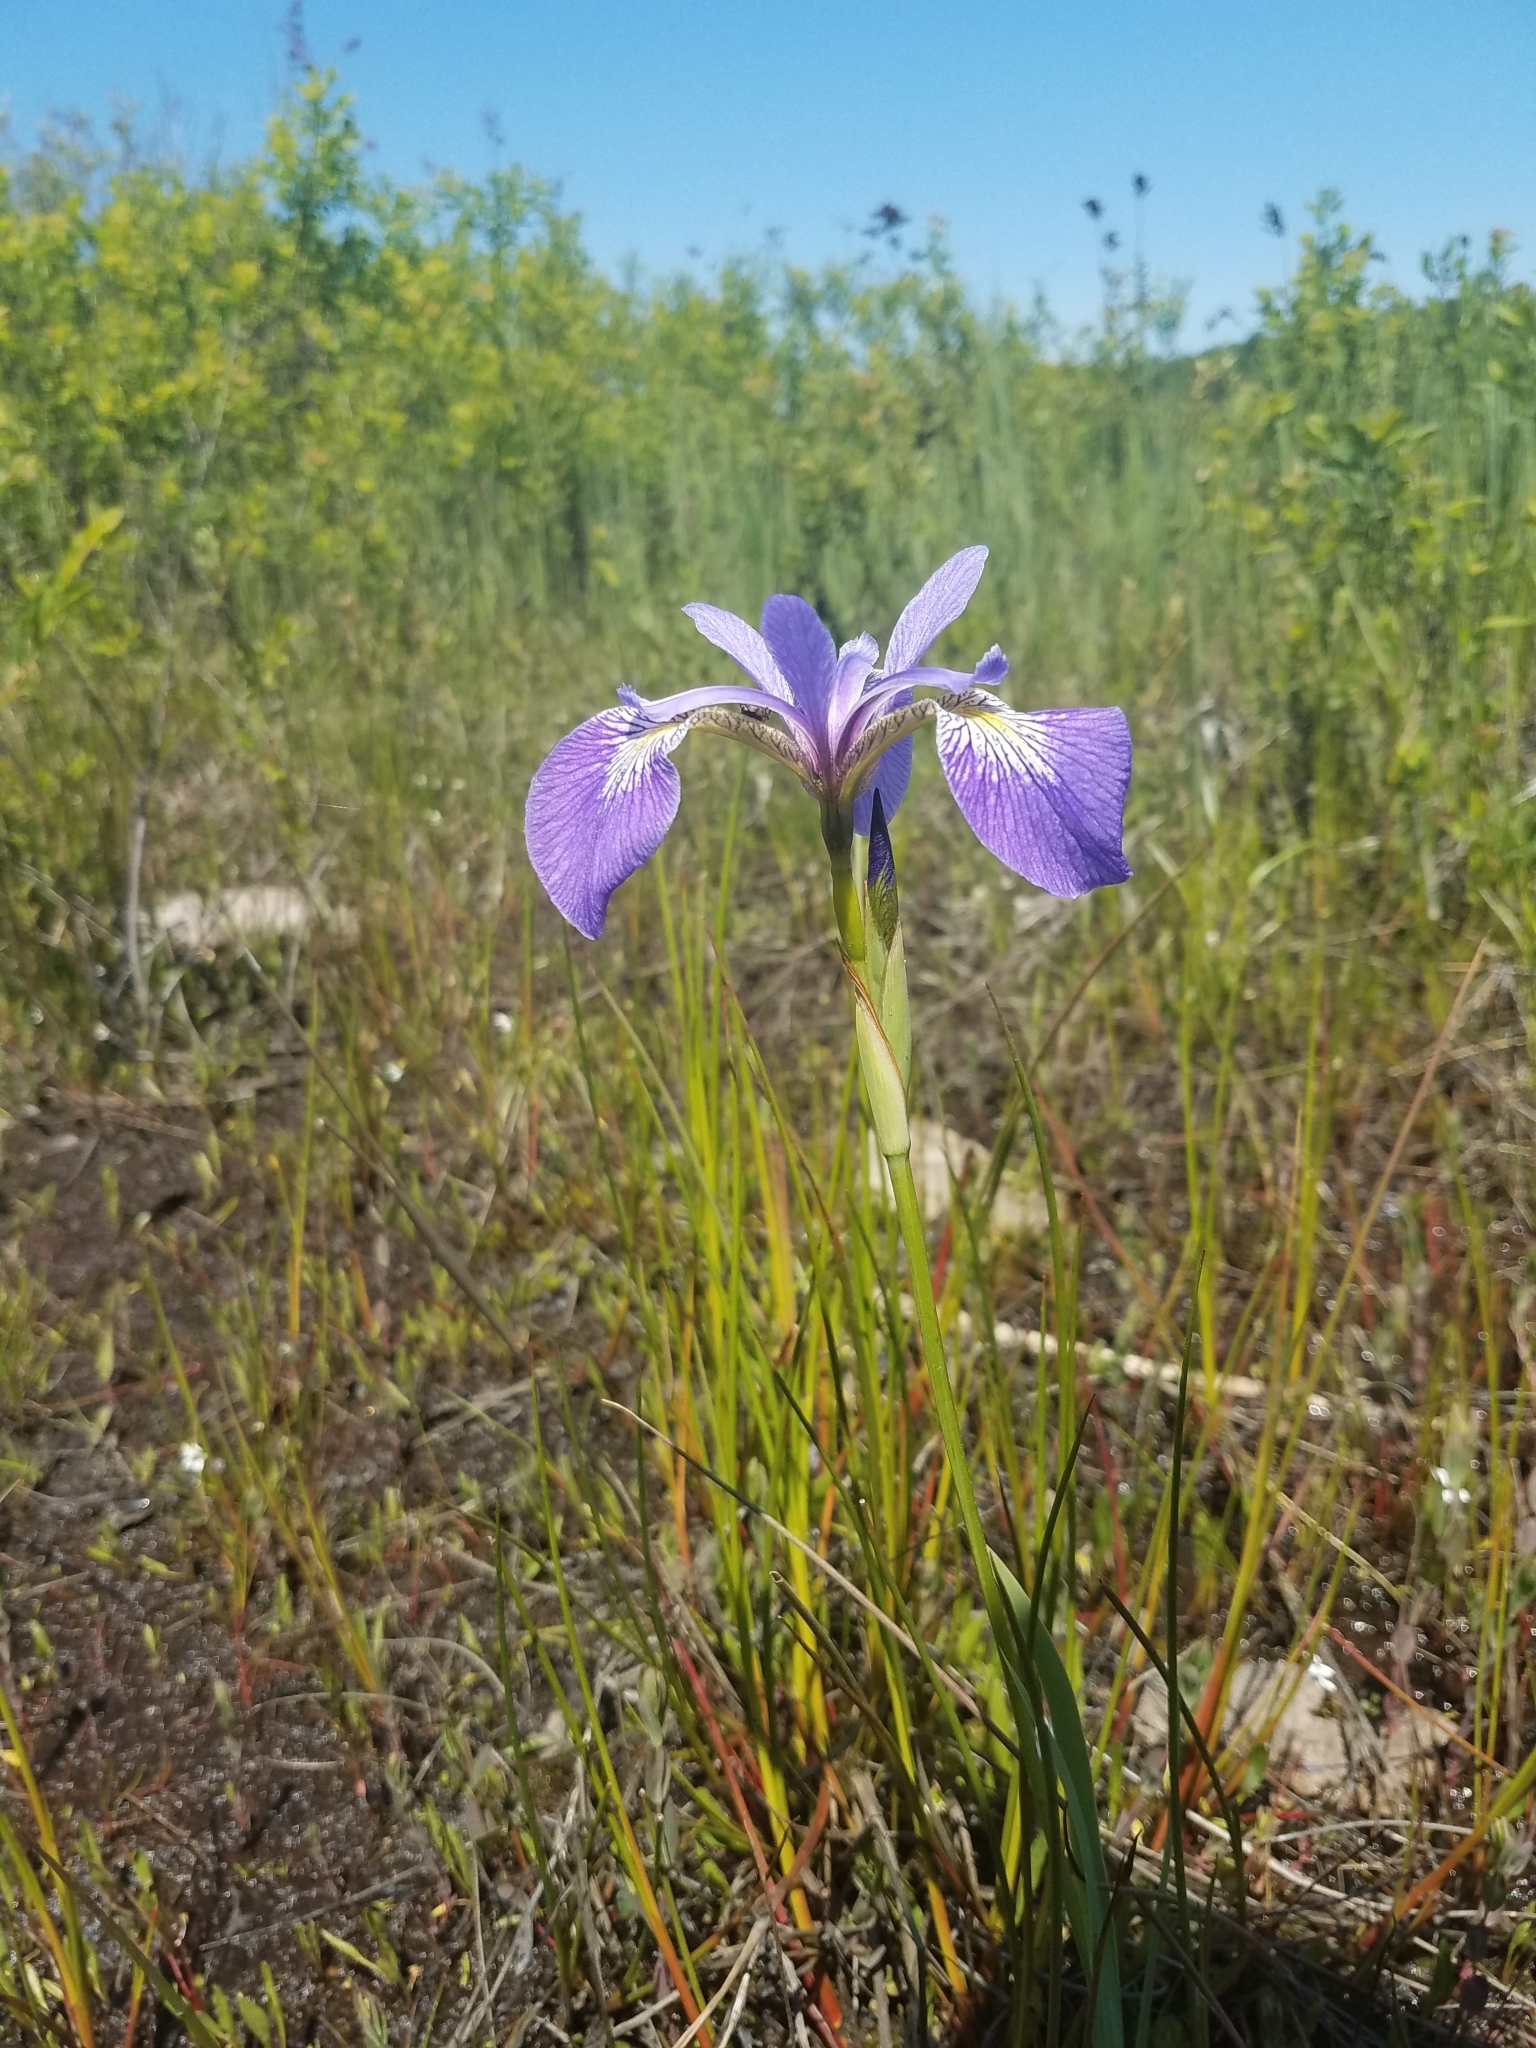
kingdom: Plantae
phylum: Tracheophyta
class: Liliopsida
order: Asparagales
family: Iridaceae
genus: Iris
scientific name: Iris versicolor
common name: Purple iris
